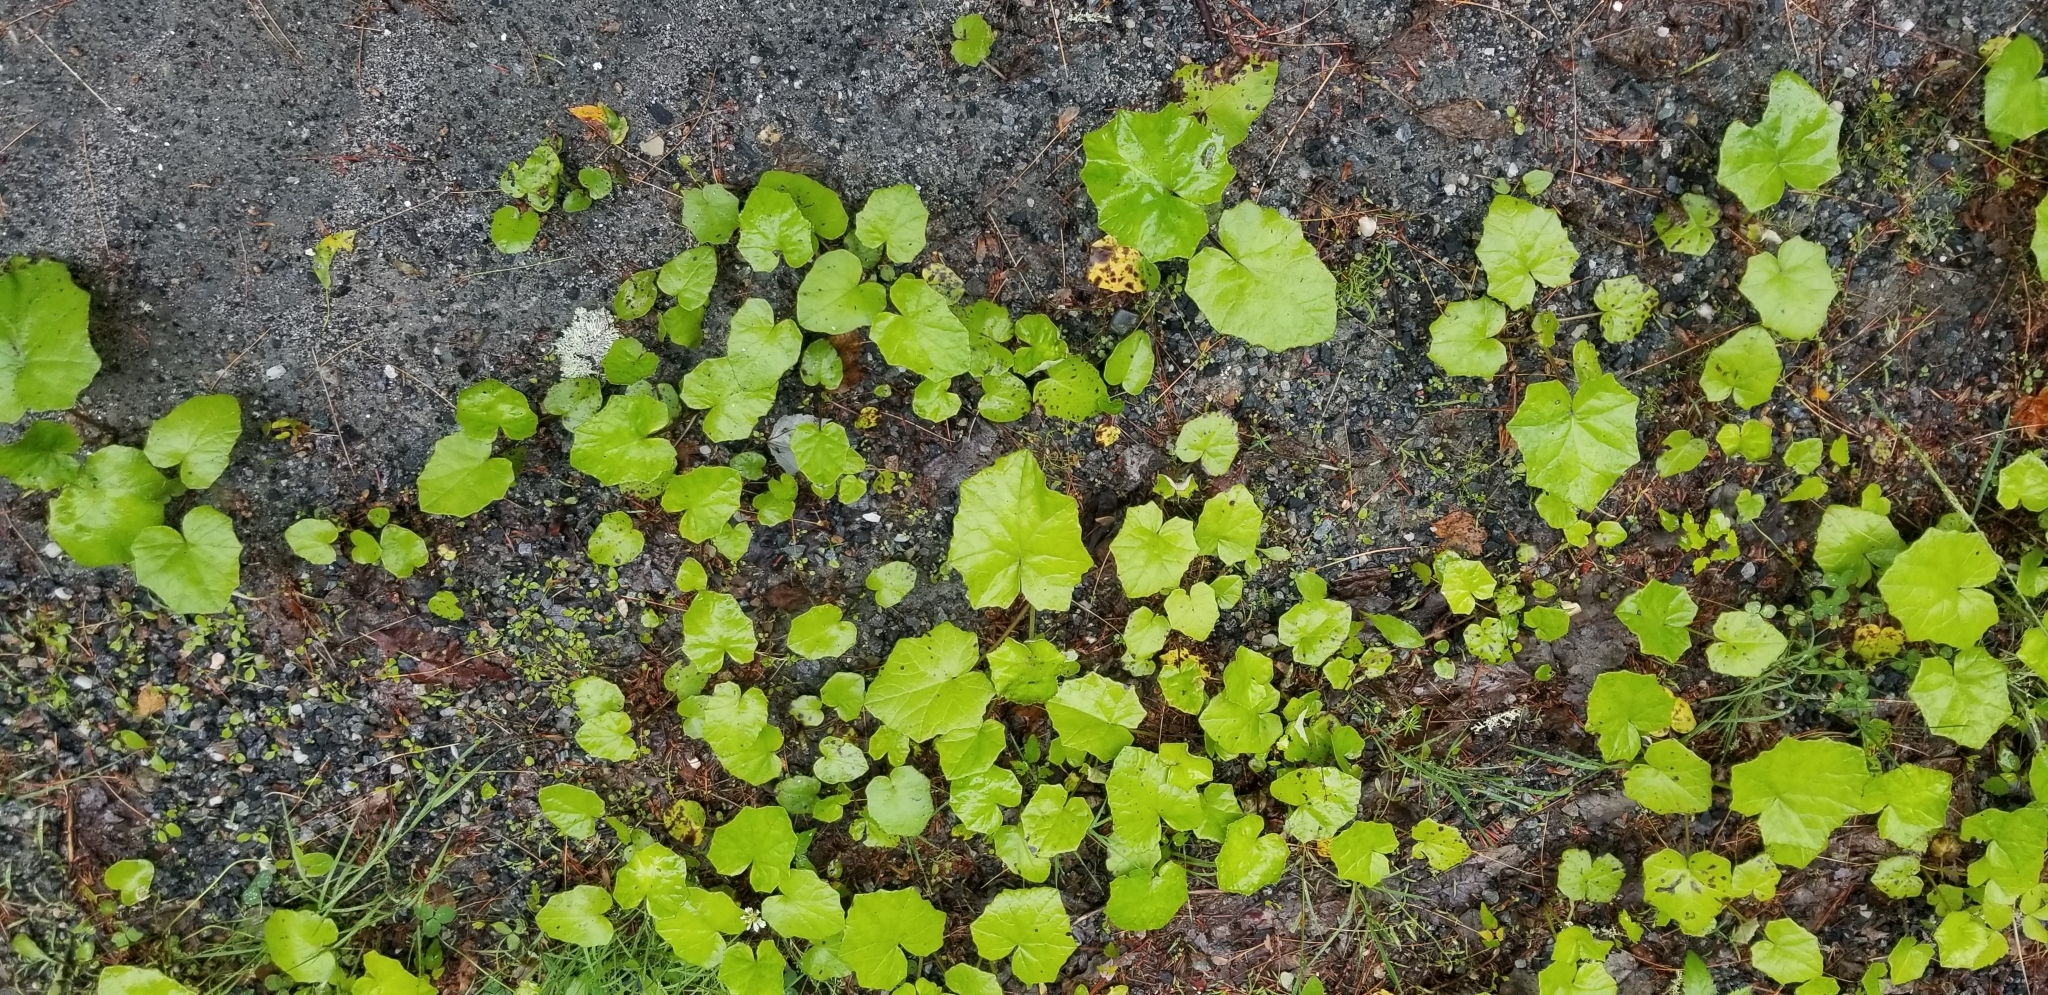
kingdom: Plantae
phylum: Tracheophyta
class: Magnoliopsida
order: Asterales
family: Asteraceae
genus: Tussilago
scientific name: Tussilago farfara
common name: Coltsfoot
